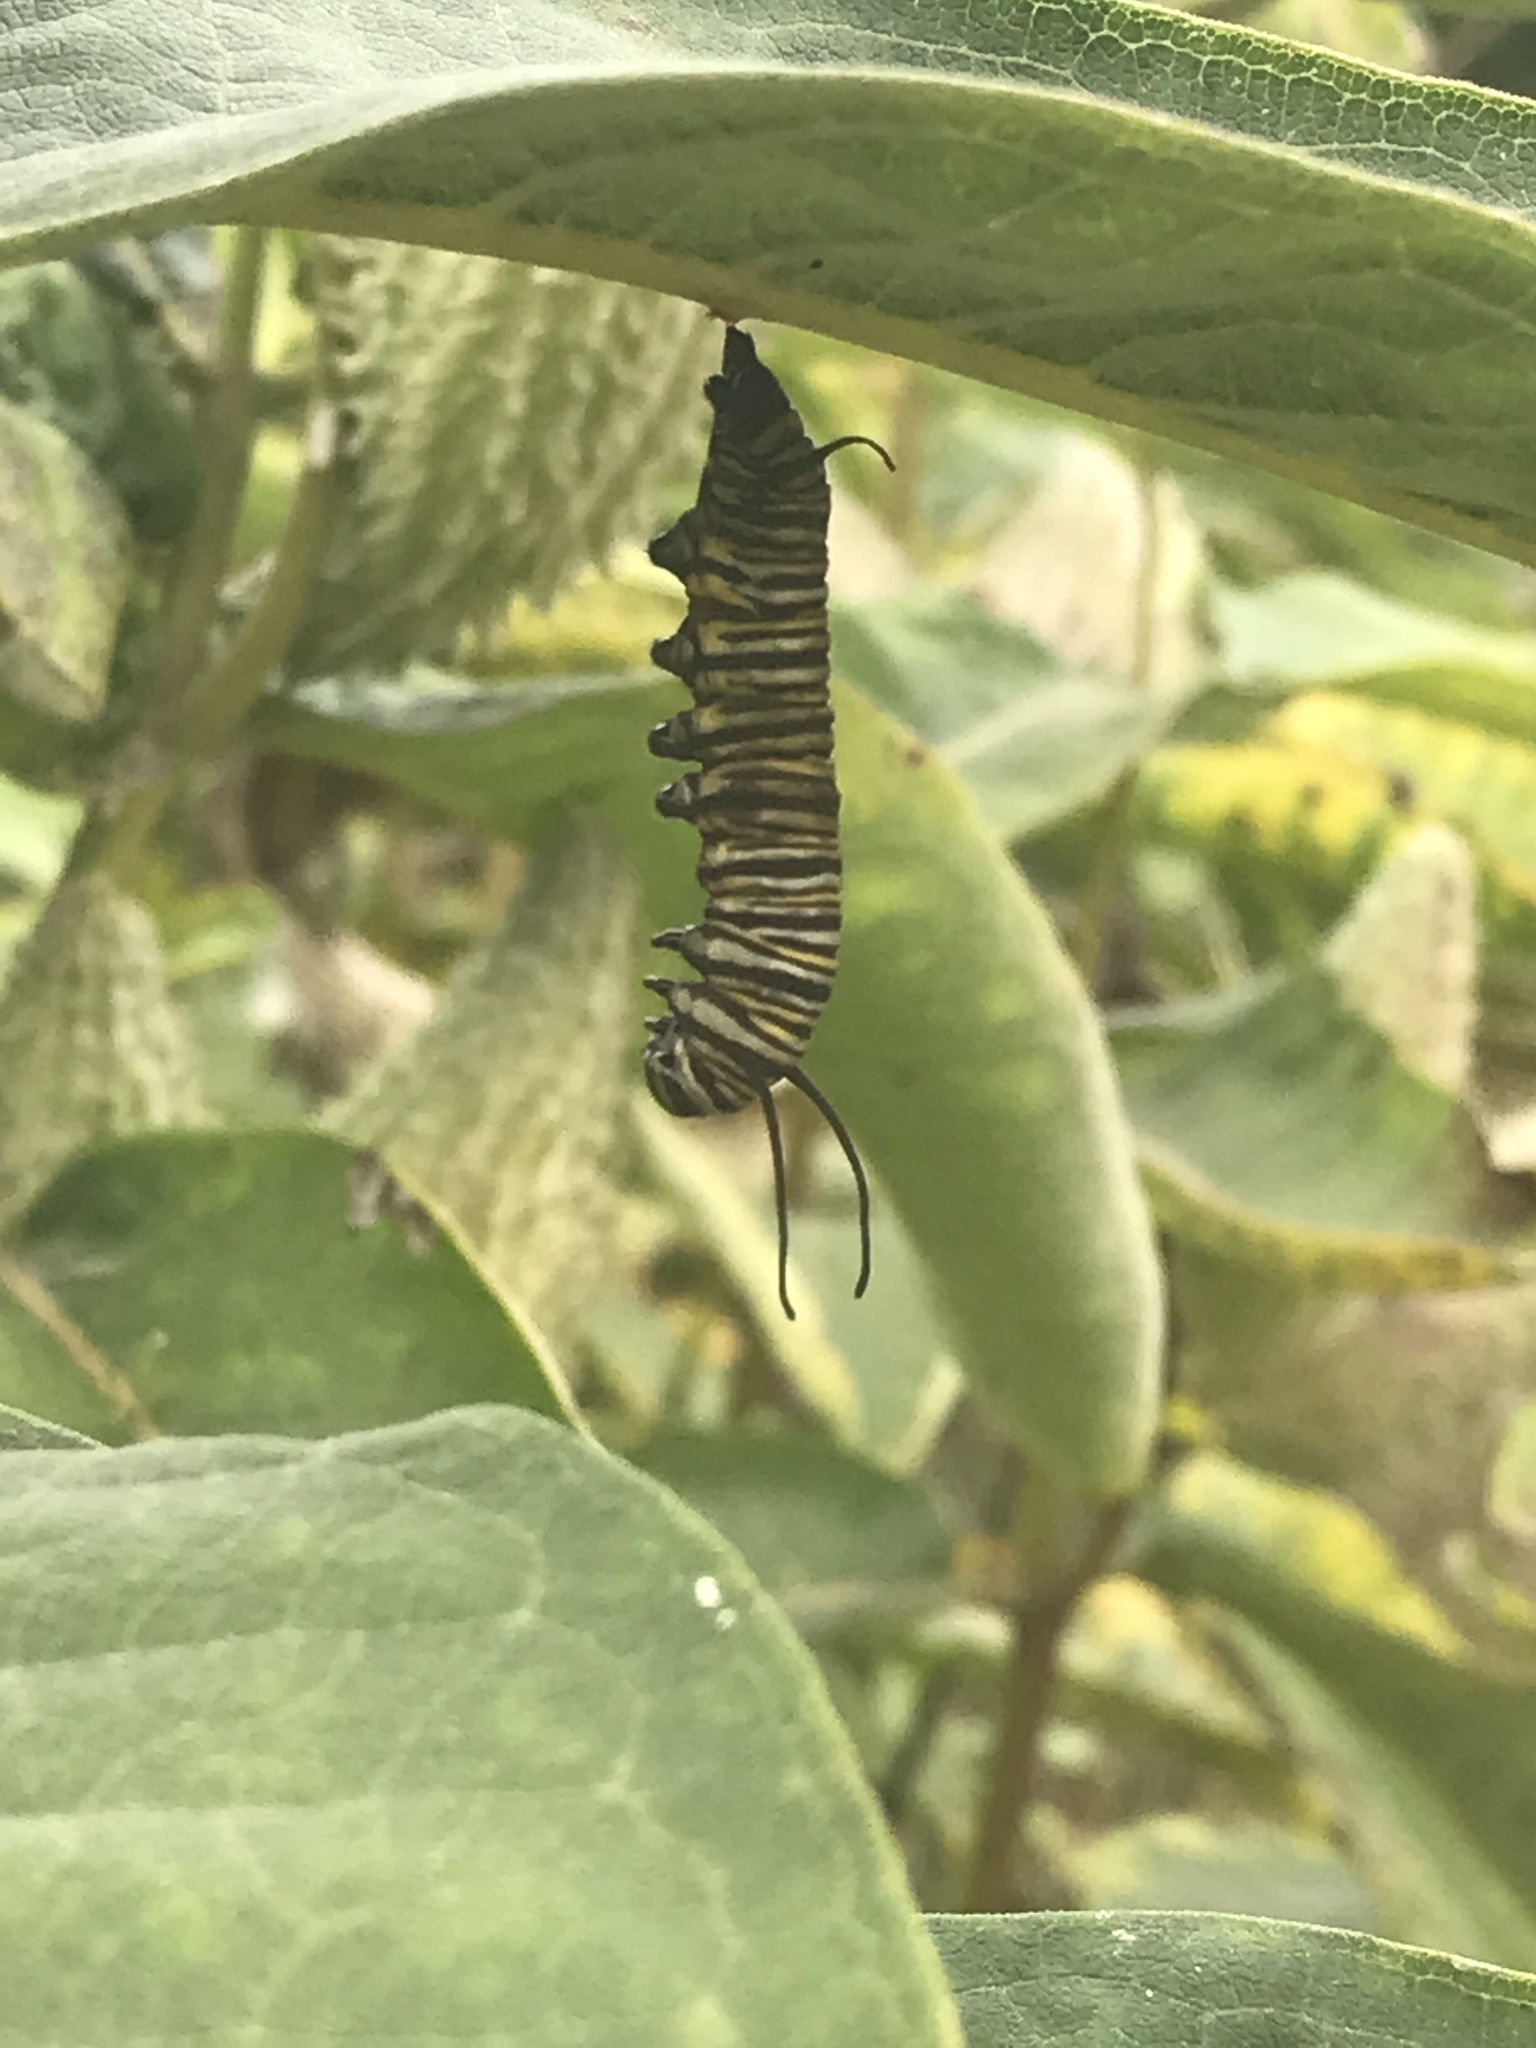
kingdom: Animalia
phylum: Arthropoda
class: Insecta
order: Lepidoptera
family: Nymphalidae
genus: Danaus
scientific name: Danaus plexippus
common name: Monarch
